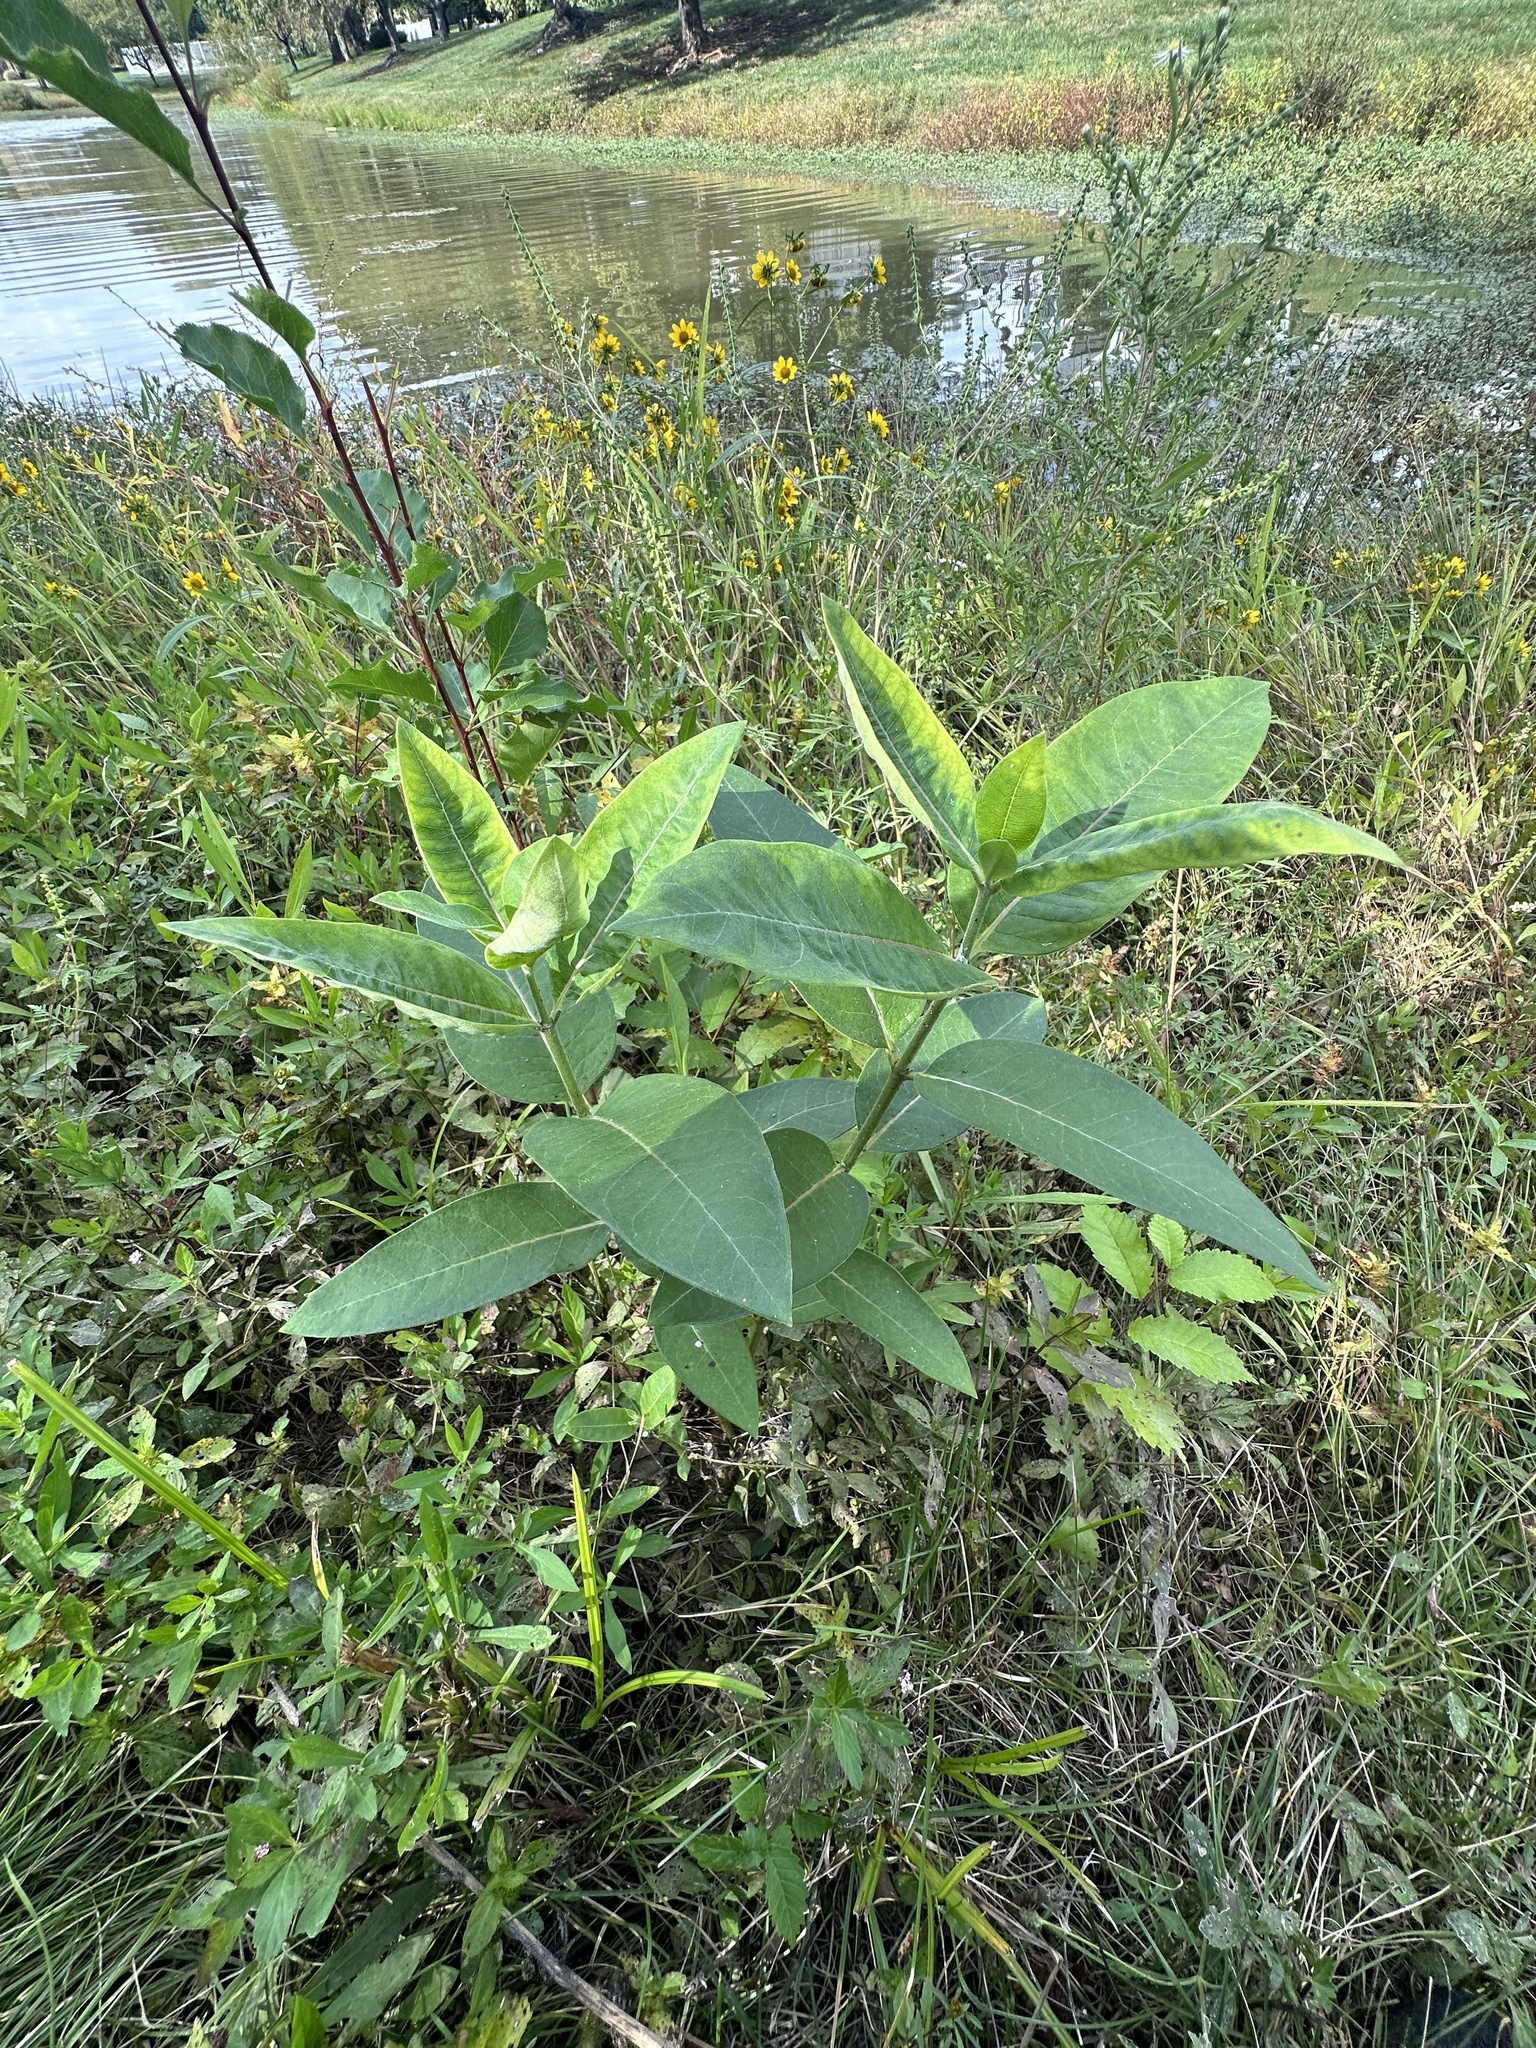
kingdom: Plantae
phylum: Tracheophyta
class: Magnoliopsida
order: Gentianales
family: Apocynaceae
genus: Asclepias
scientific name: Asclepias syriaca
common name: Common milkweed
